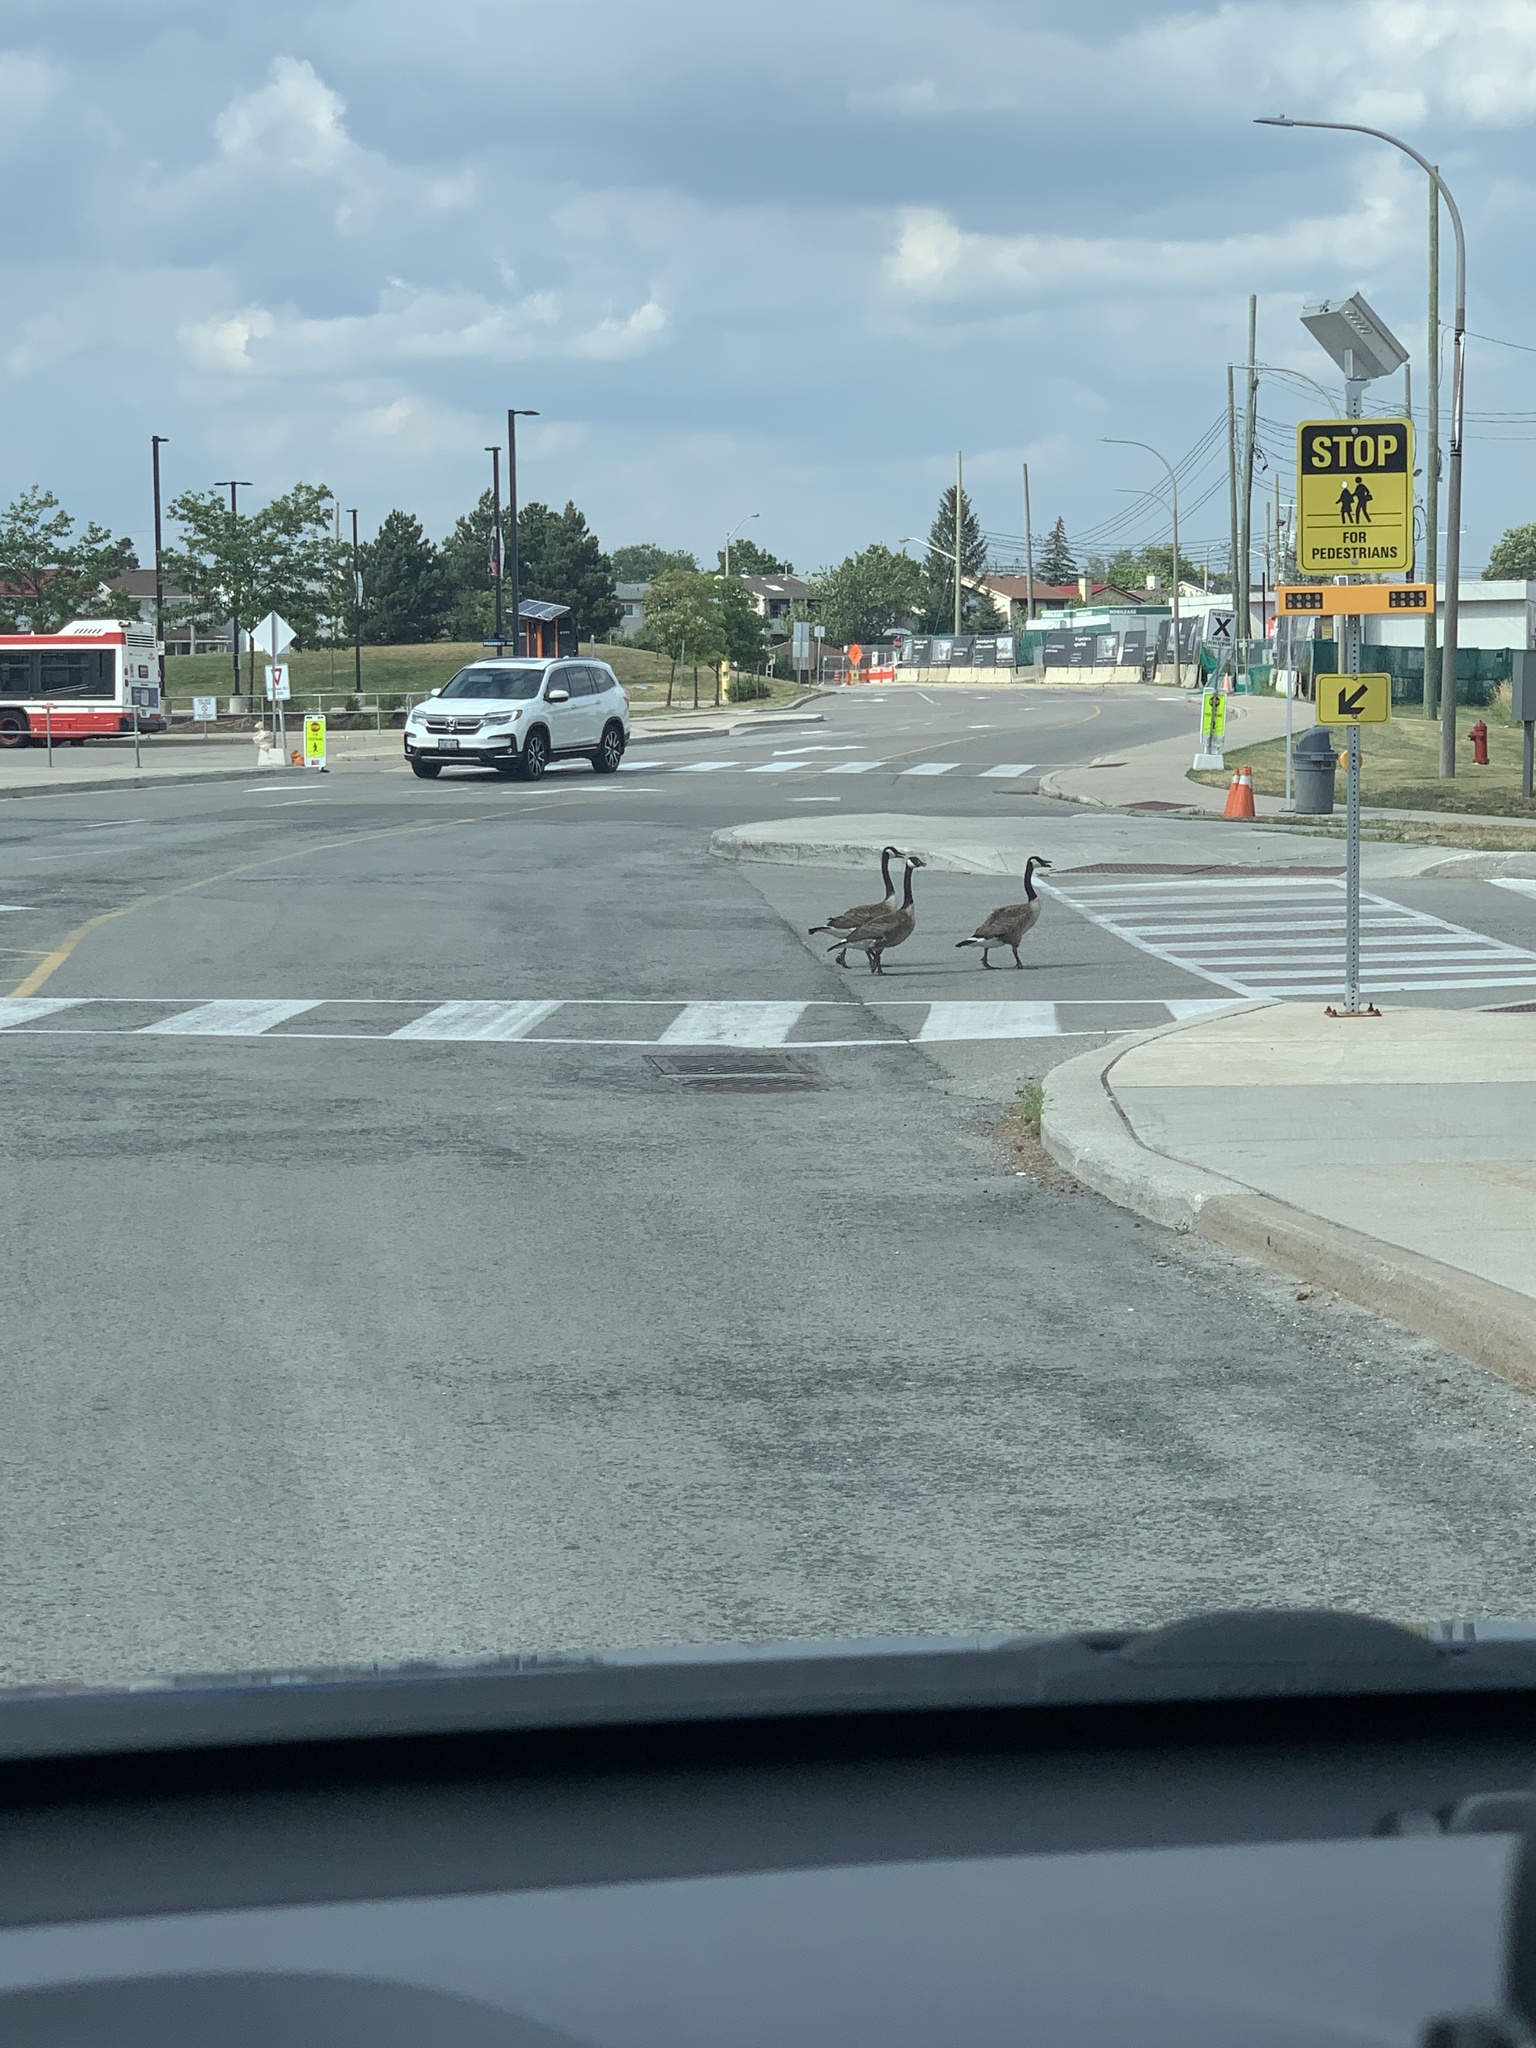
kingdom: Animalia
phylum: Chordata
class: Aves
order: Anseriformes
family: Anatidae
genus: Branta
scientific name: Branta canadensis
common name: Canada goose
